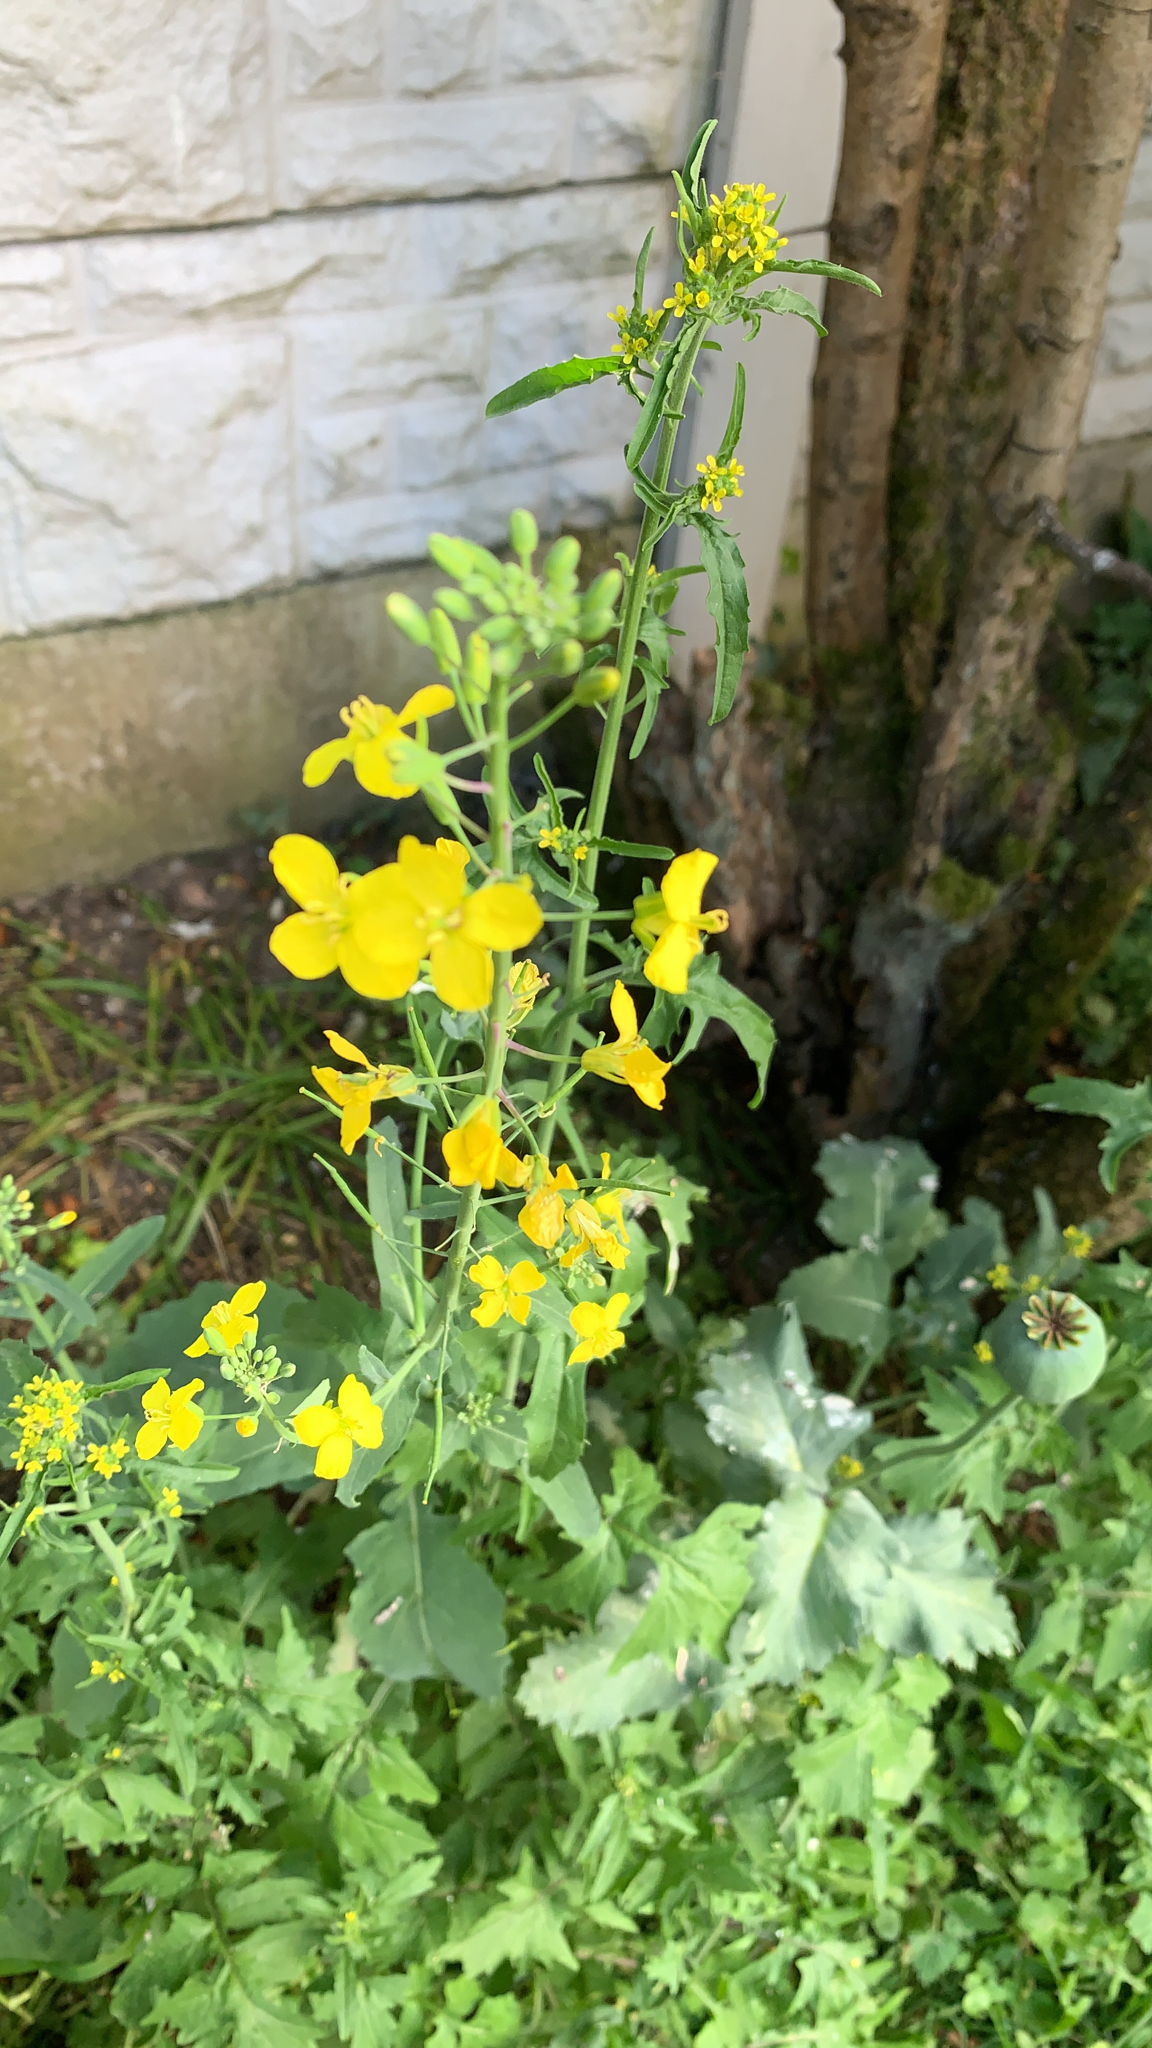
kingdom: Plantae
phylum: Tracheophyta
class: Magnoliopsida
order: Brassicales
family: Brassicaceae
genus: Brassica
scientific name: Brassica napus
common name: Rape
